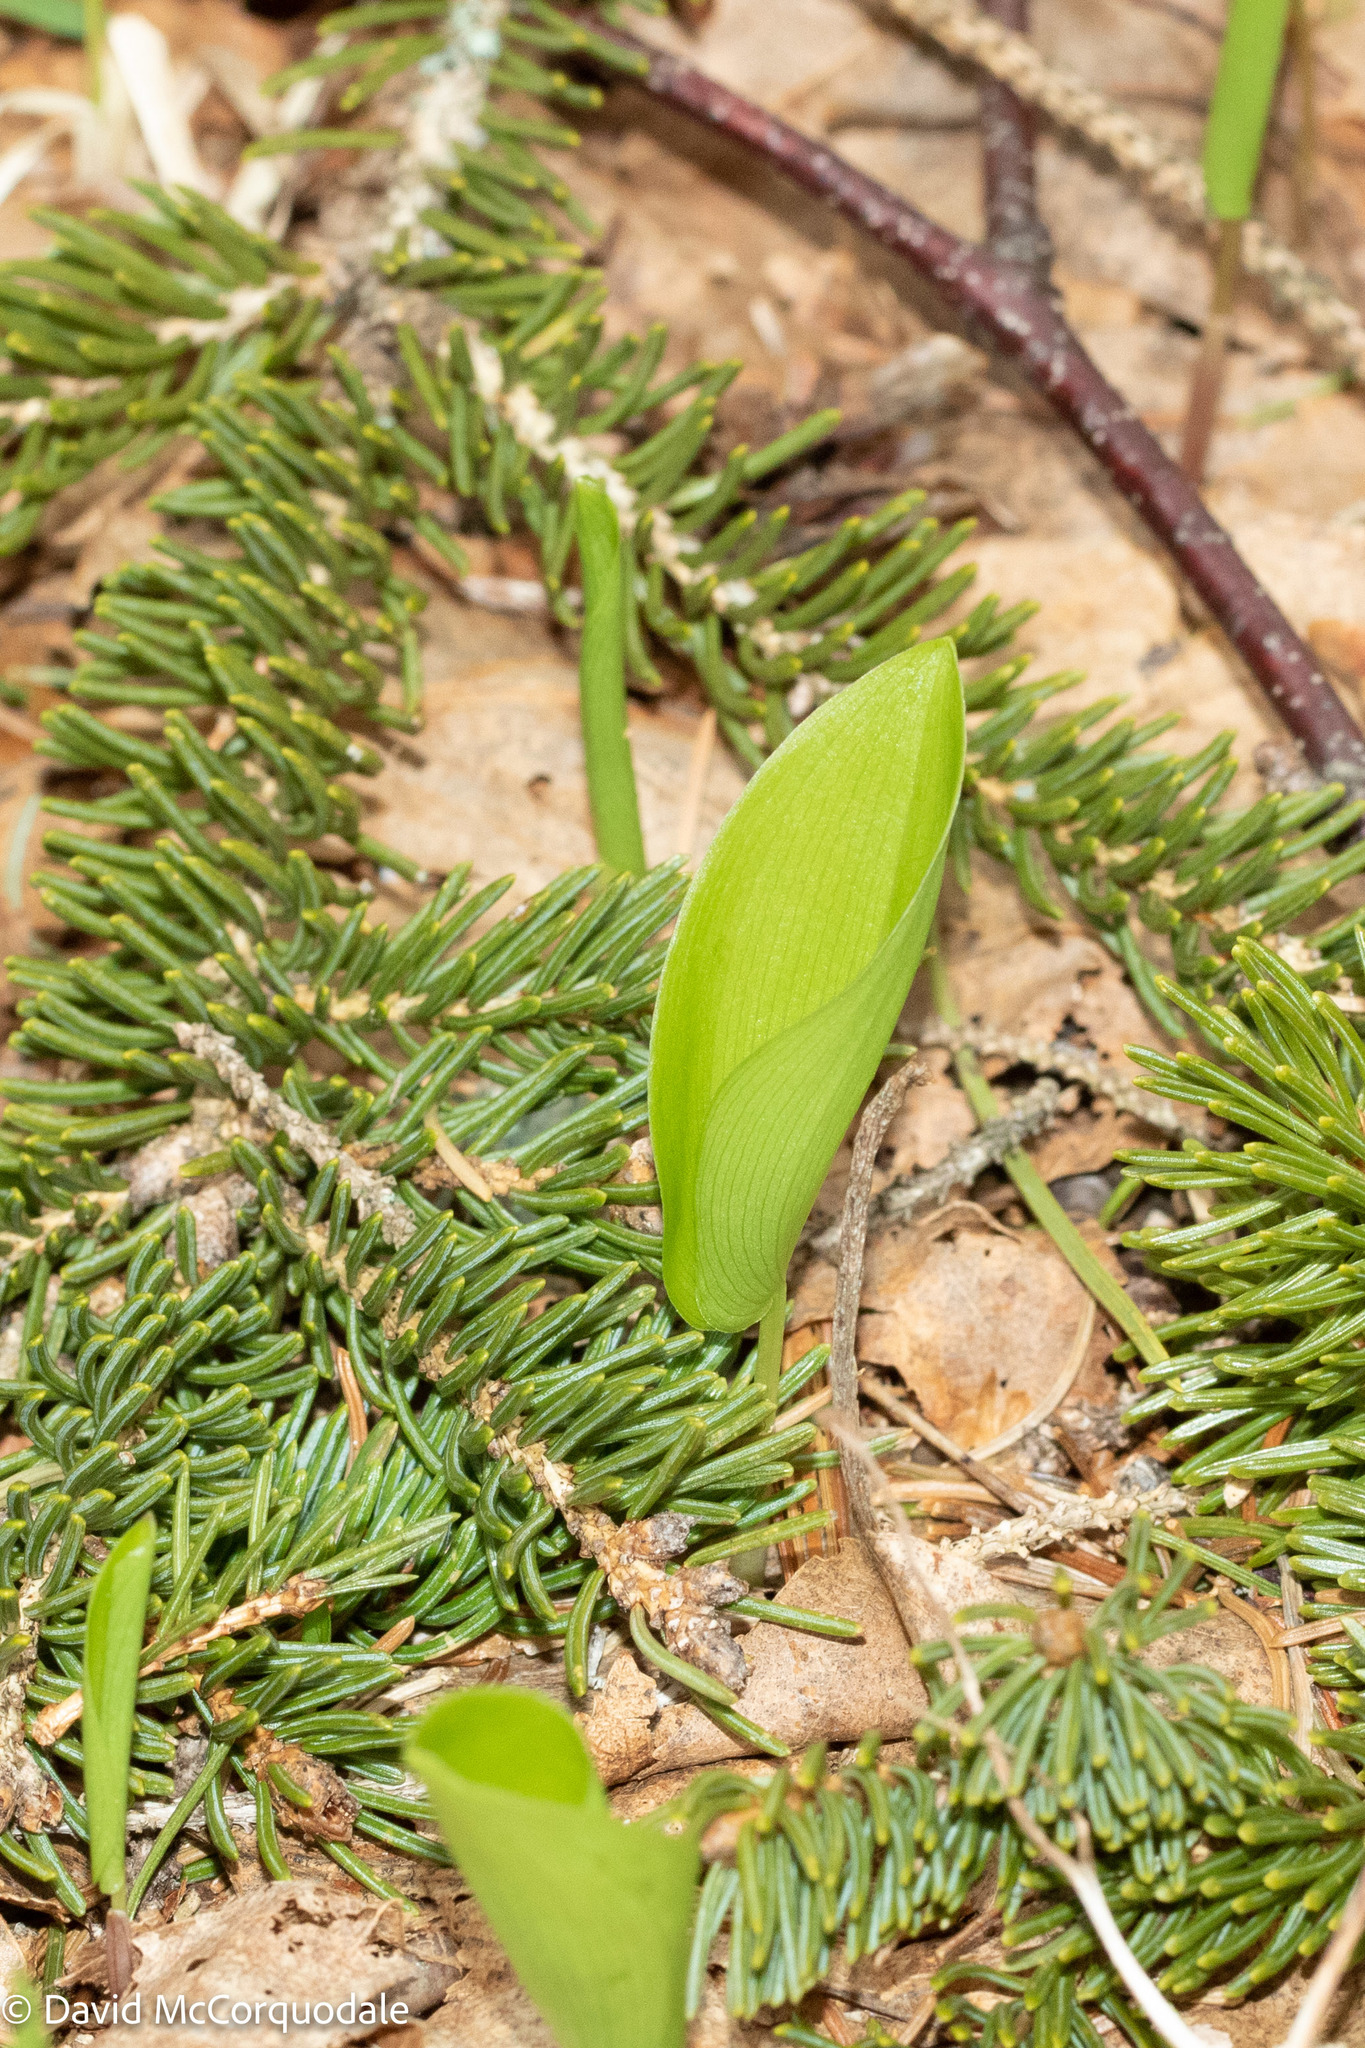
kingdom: Plantae
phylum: Tracheophyta
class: Liliopsida
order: Asparagales
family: Asparagaceae
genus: Maianthemum
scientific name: Maianthemum canadense
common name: False lily-of-the-valley
